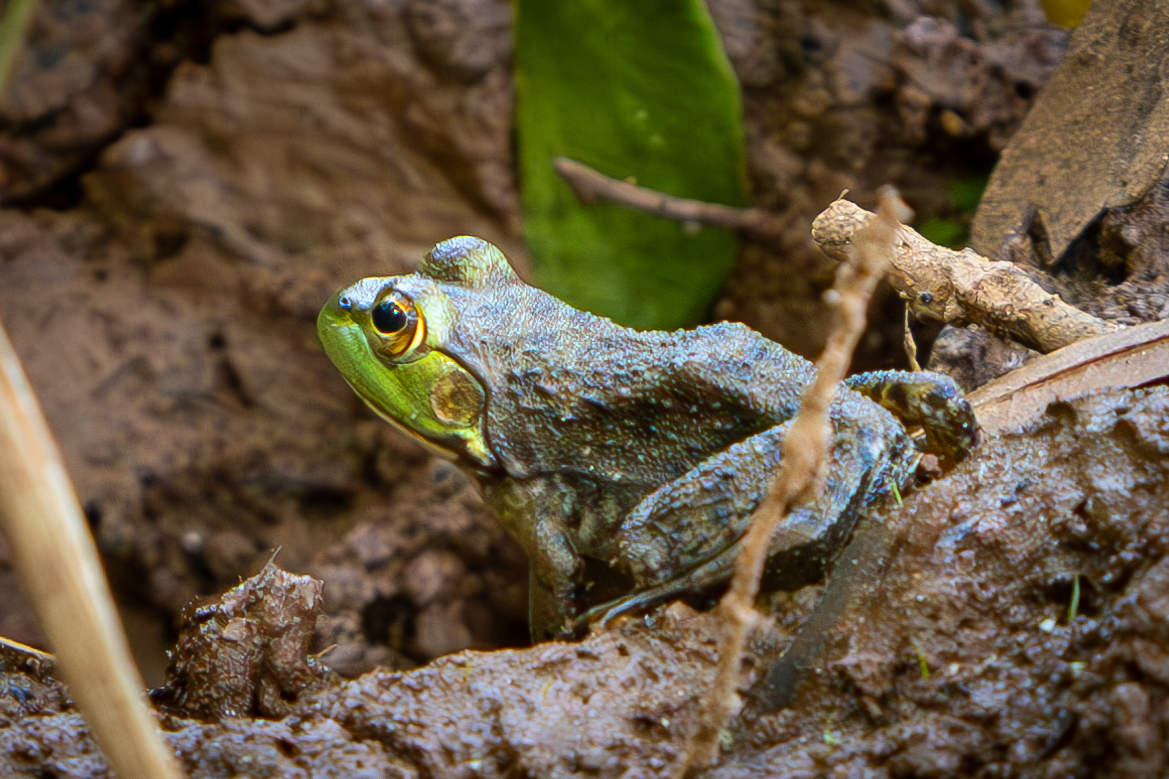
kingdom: Animalia
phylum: Chordata
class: Amphibia
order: Anura
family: Ranidae
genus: Lithobates
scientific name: Lithobates catesbeianus
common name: American bullfrog
